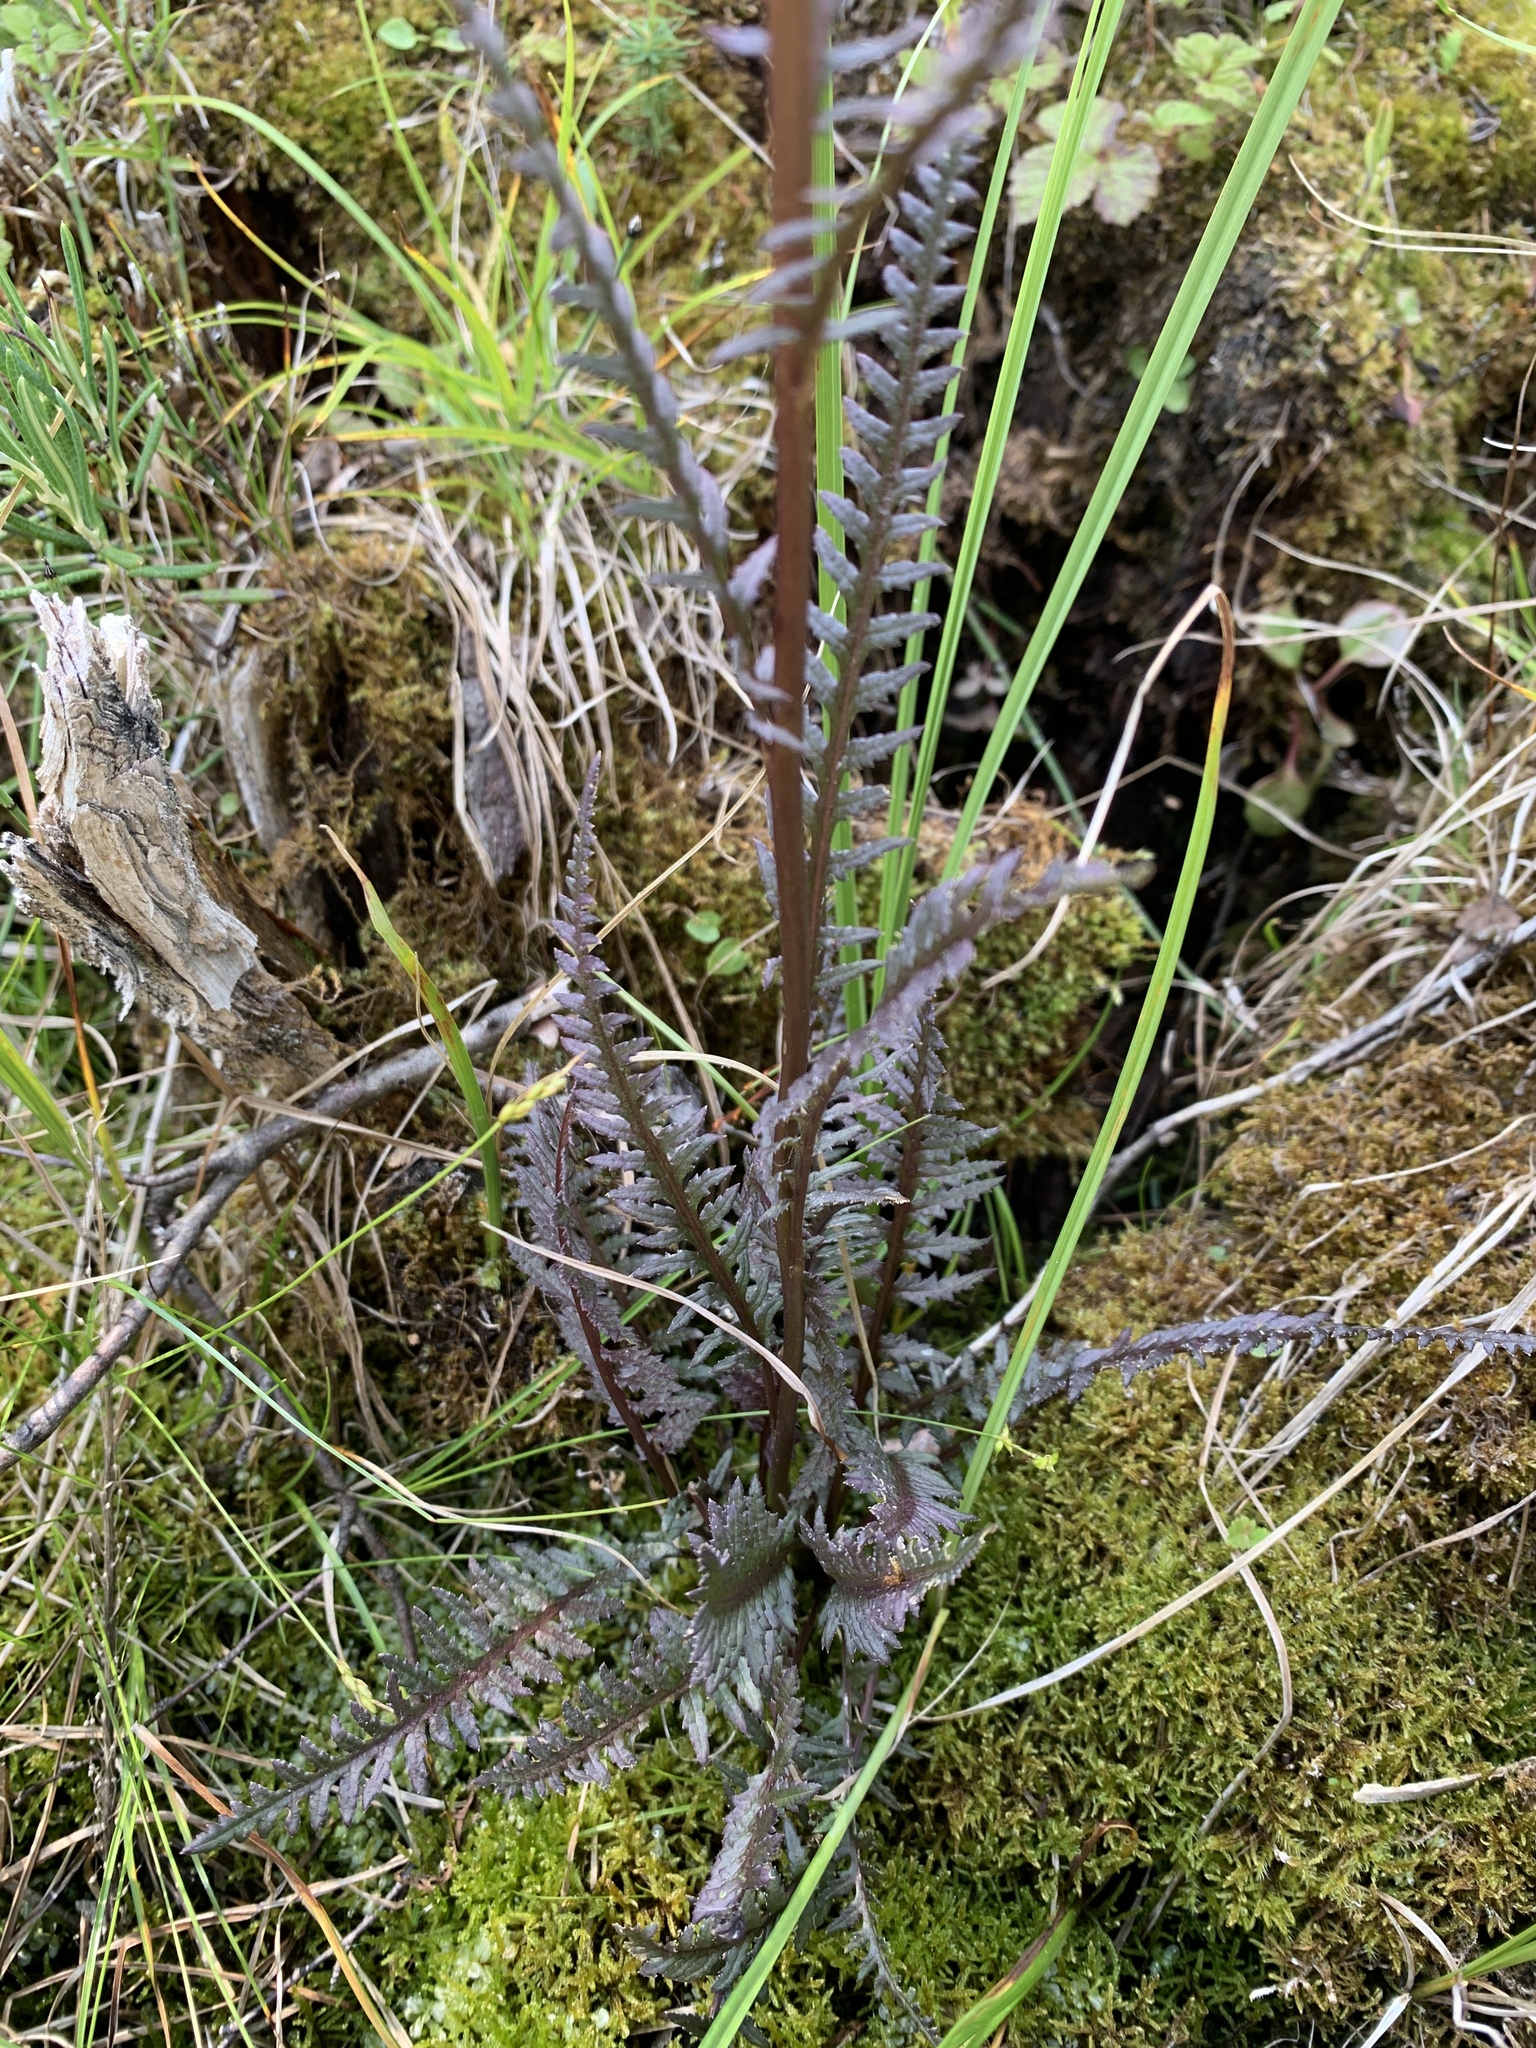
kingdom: Plantae
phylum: Tracheophyta
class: Magnoliopsida
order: Lamiales
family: Orobanchaceae
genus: Pedicularis
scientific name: Pedicularis groenlandica
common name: Elephant's-head
